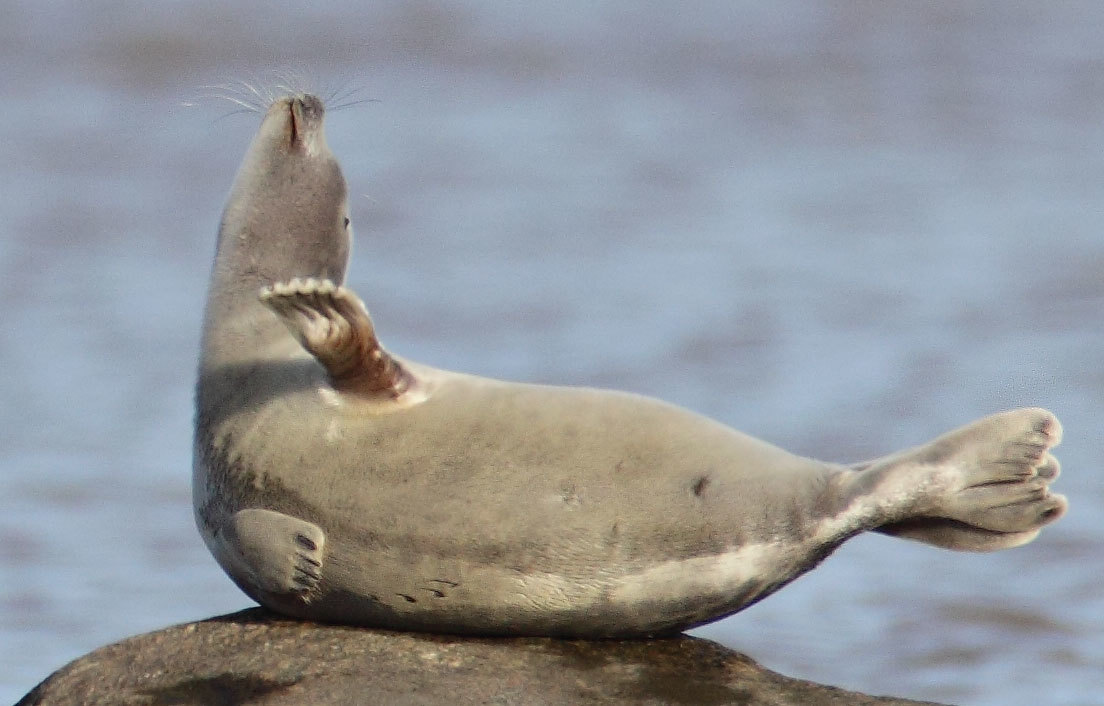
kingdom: Animalia
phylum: Chordata
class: Mammalia
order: Carnivora
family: Phocidae
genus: Pusa
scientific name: Pusa hispida
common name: Ringed seal
